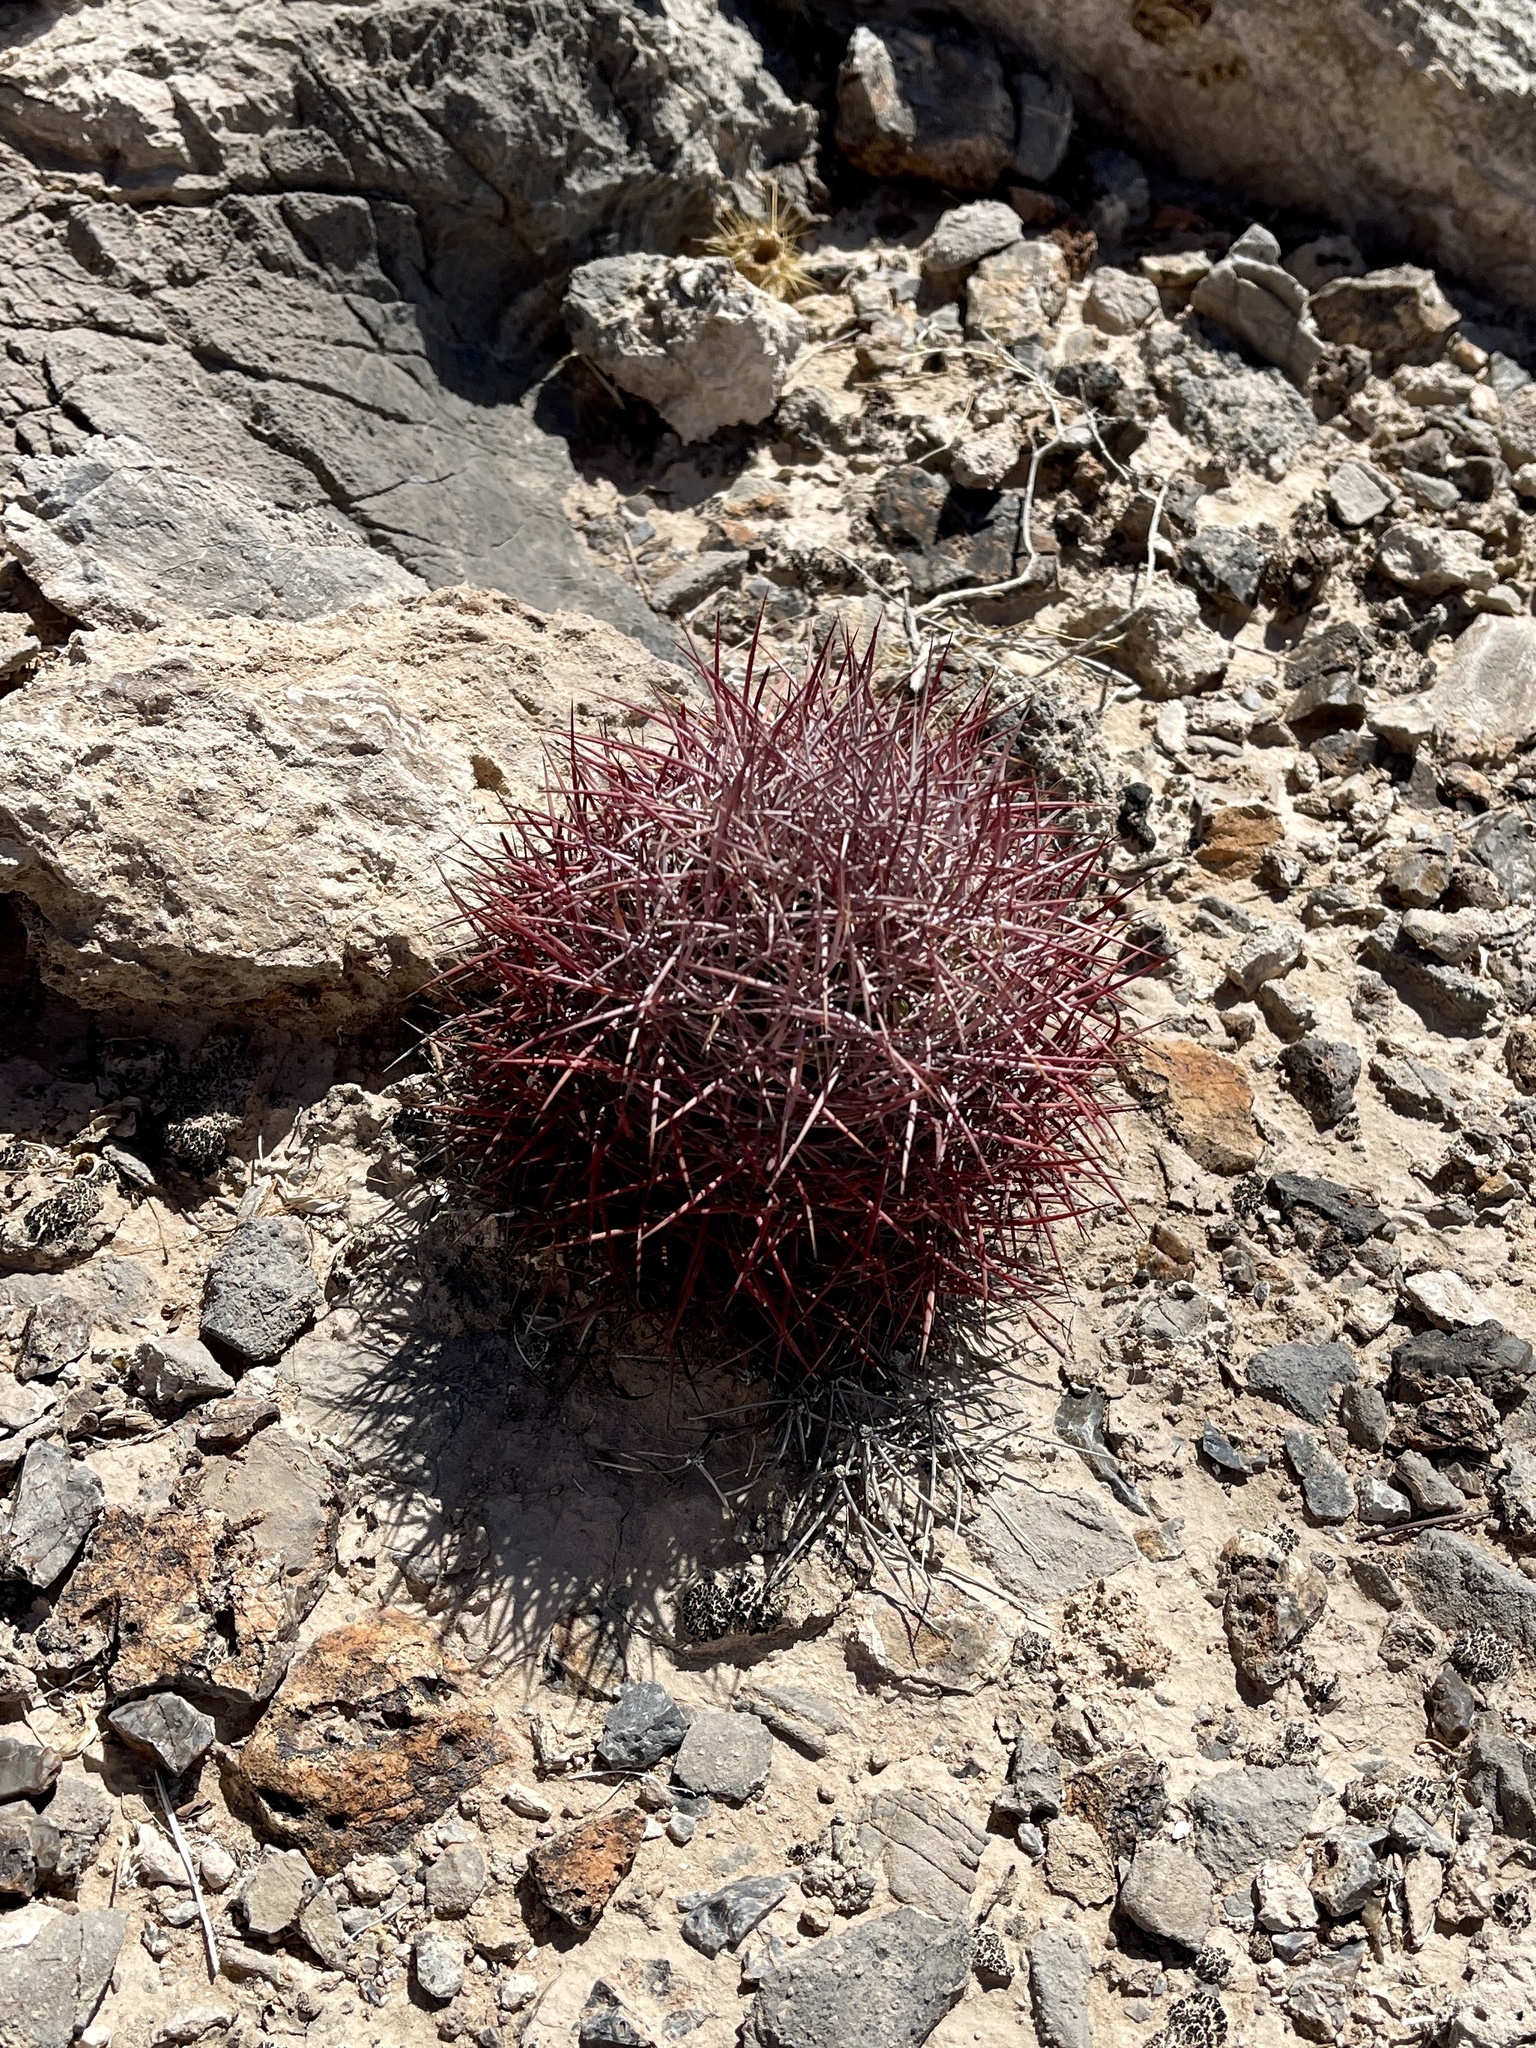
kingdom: Plantae
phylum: Tracheophyta
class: Magnoliopsida
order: Caryophyllales
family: Cactaceae
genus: Sclerocactus
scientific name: Sclerocactus johnsonii
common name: Eight-spine fishhook cactus
